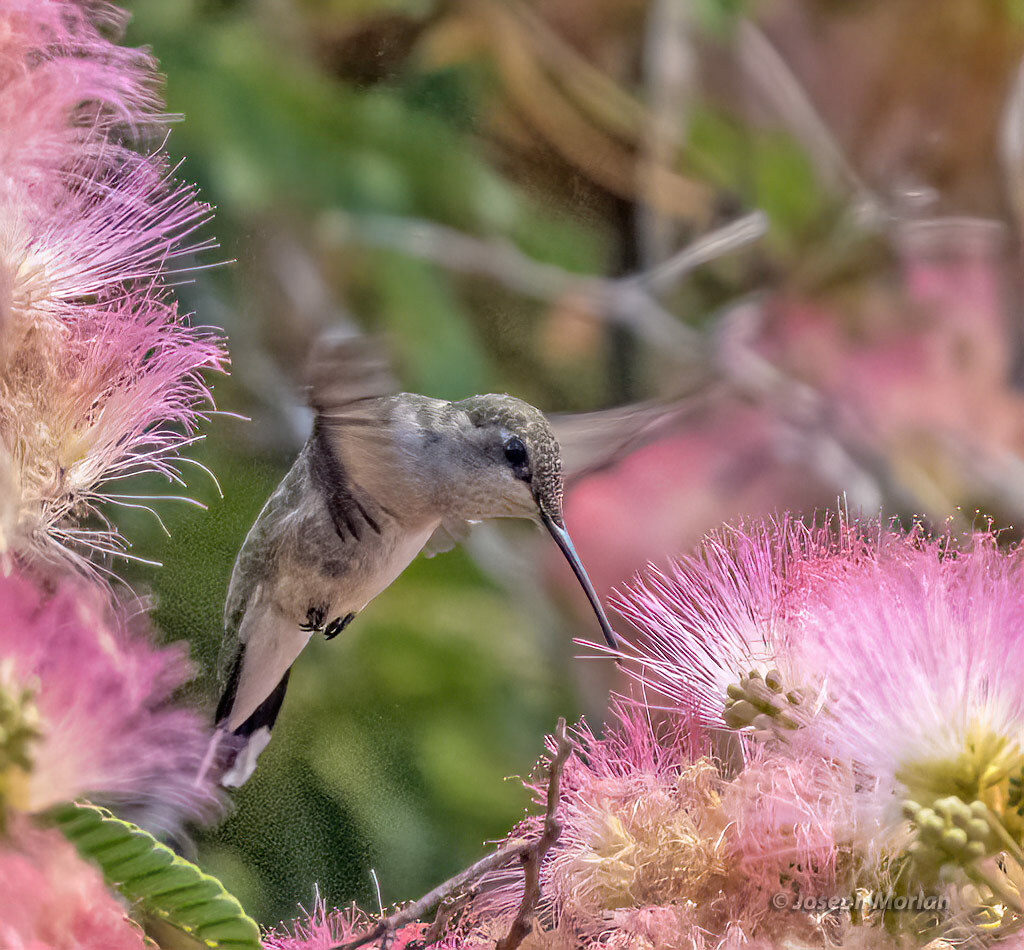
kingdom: Animalia
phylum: Chordata
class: Aves
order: Apodiformes
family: Trochilidae
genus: Archilochus
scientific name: Archilochus alexandri
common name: Black-chinned hummingbird
